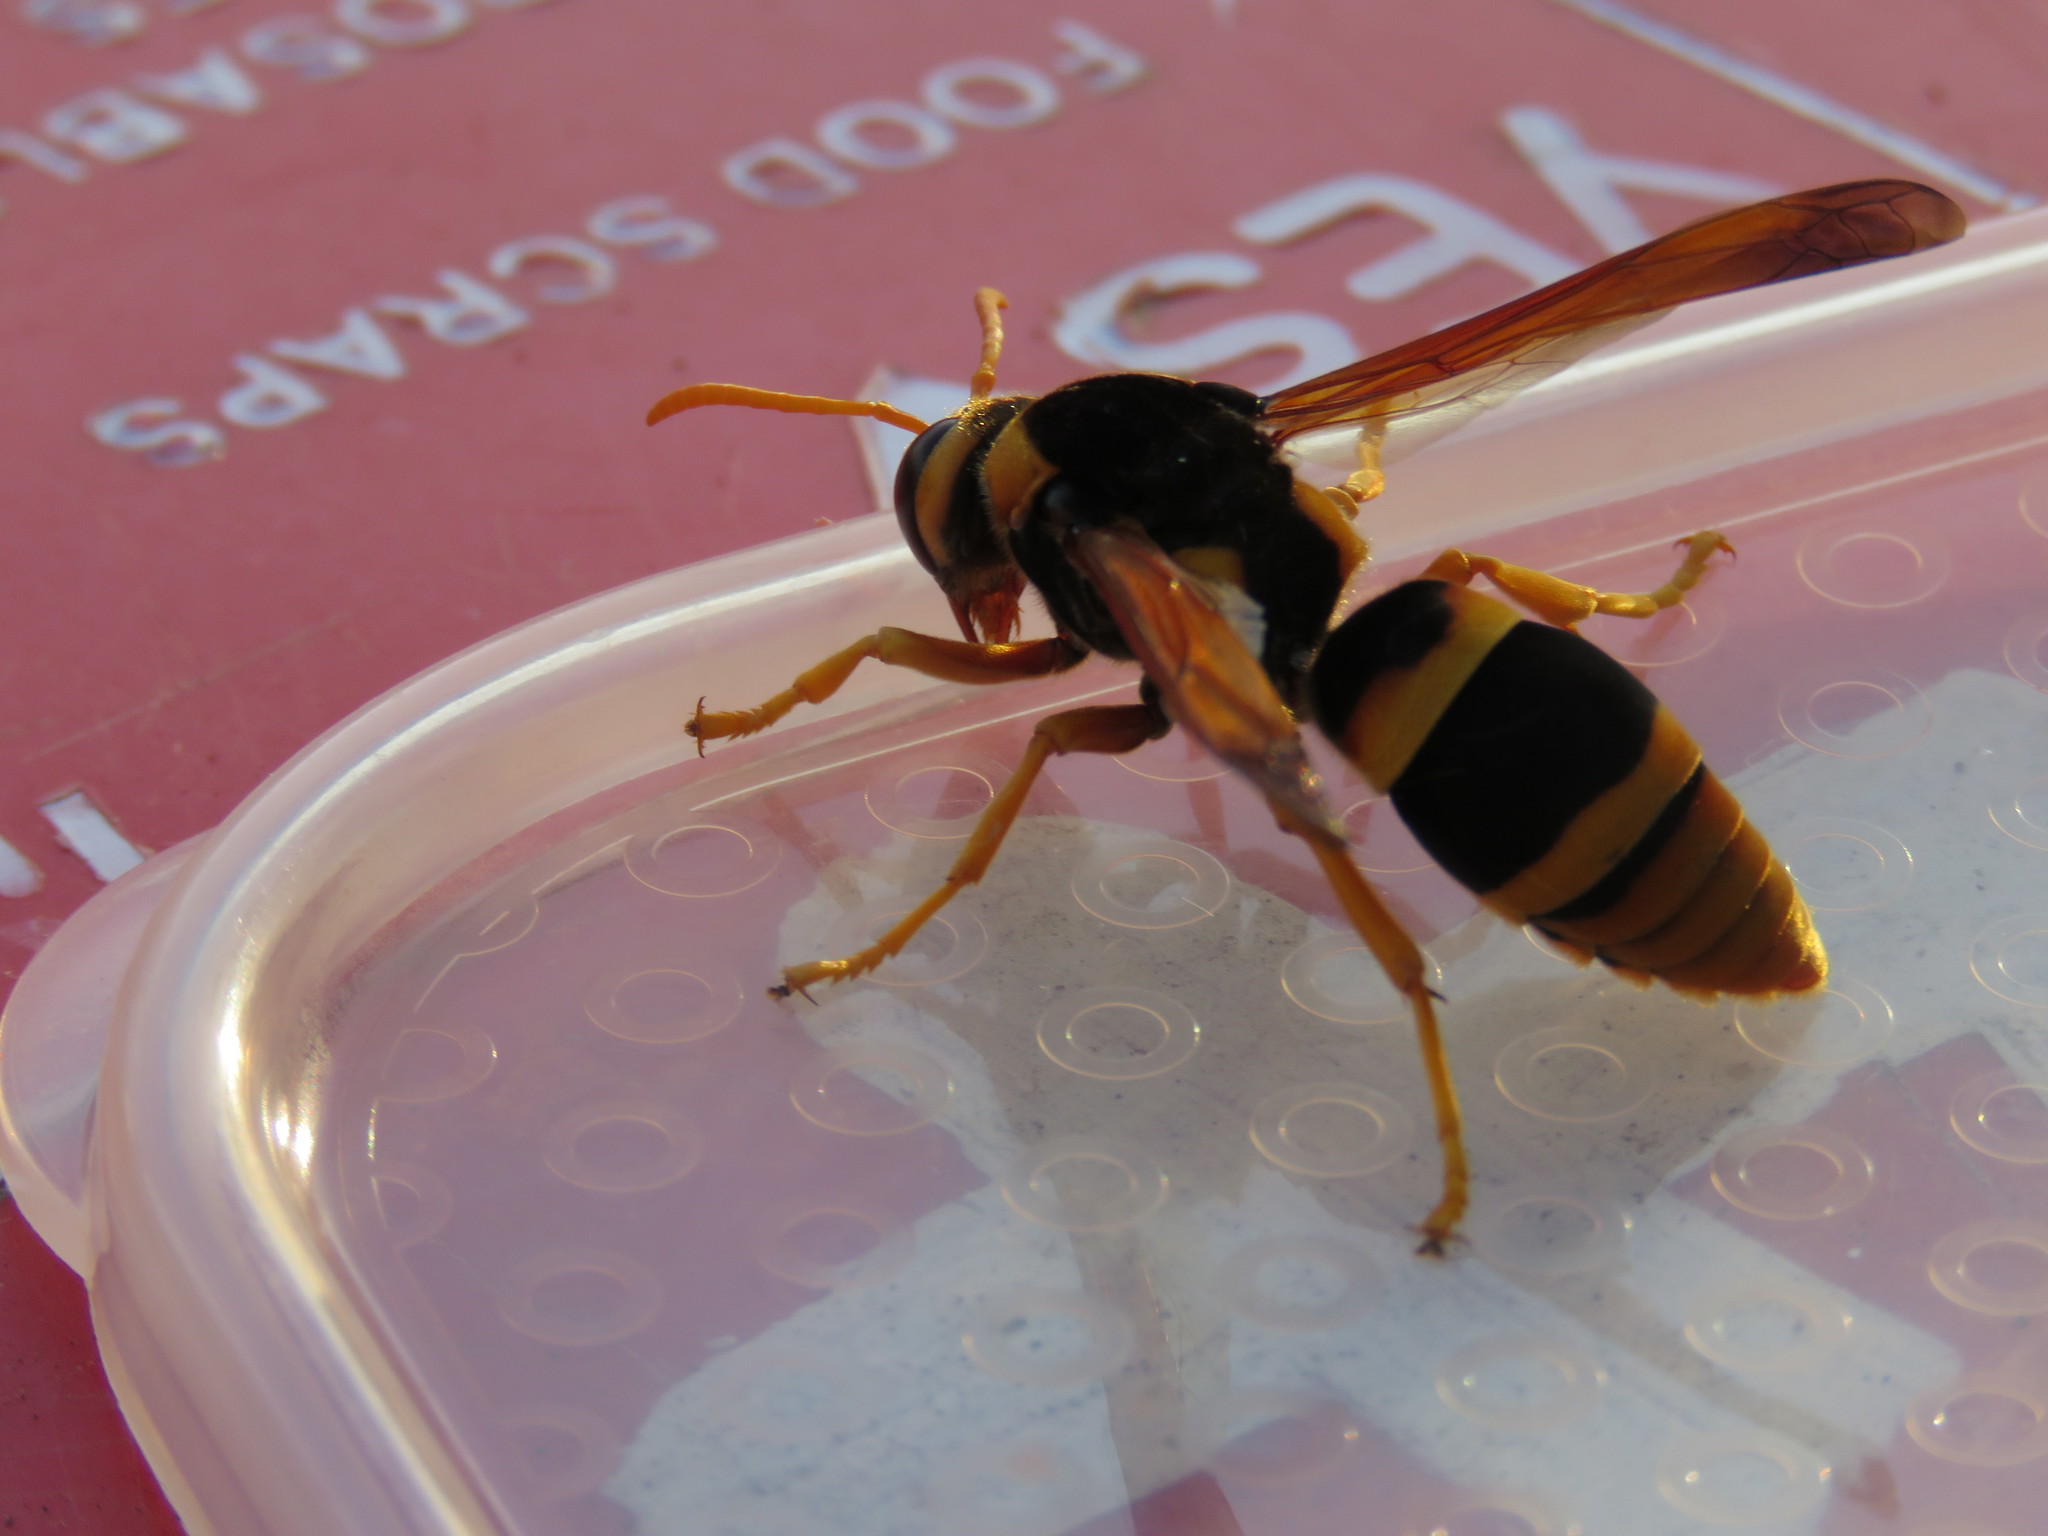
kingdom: Animalia
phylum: Arthropoda
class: Insecta
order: Hymenoptera
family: Eumenidae
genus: Abispa
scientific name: Abispa splendida
